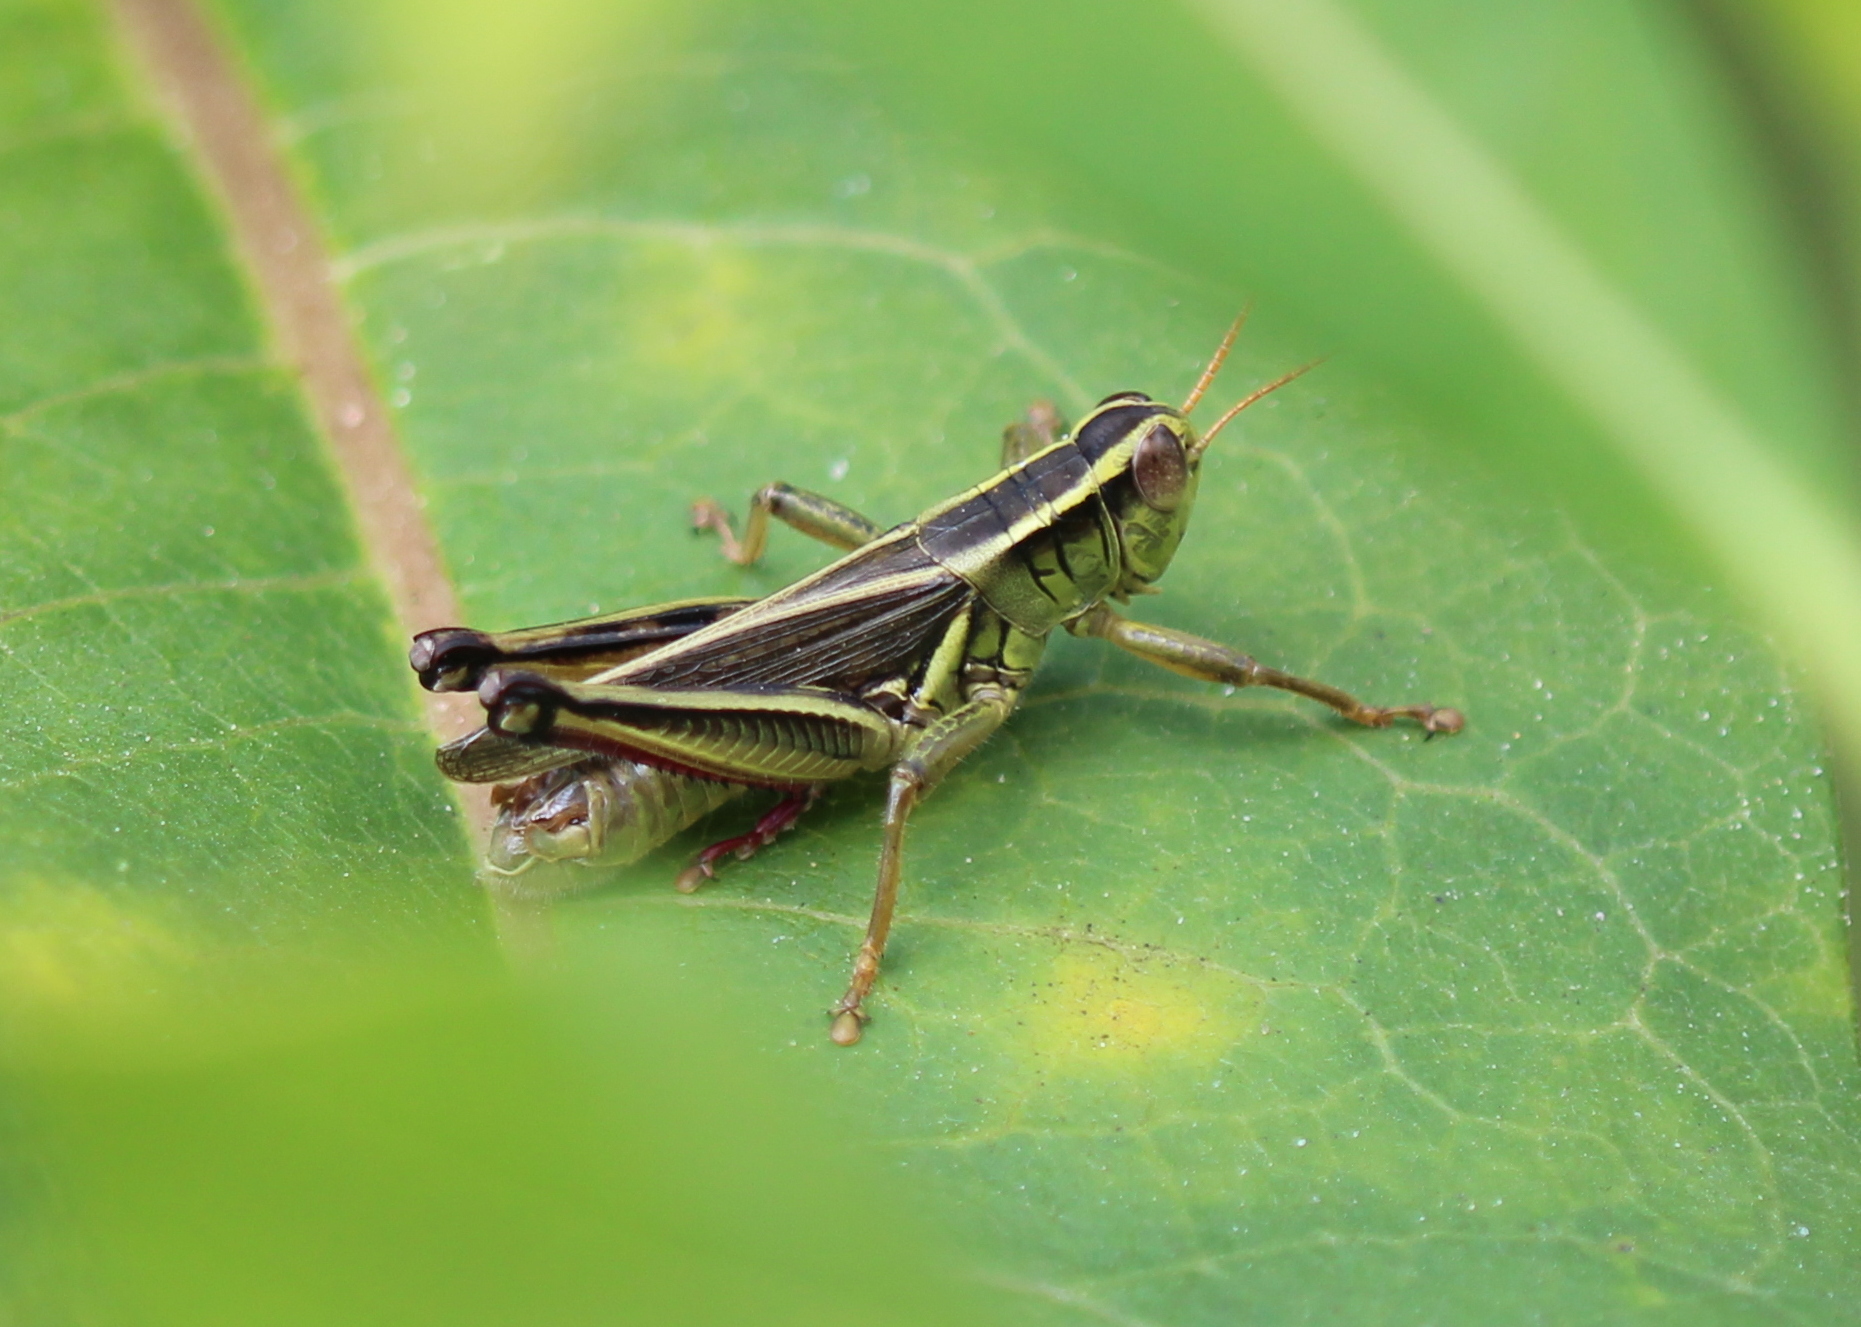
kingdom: Animalia
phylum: Arthropoda
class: Insecta
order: Orthoptera
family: Acrididae
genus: Melanoplus
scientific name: Melanoplus bivittatus
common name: Two-striped grasshopper
